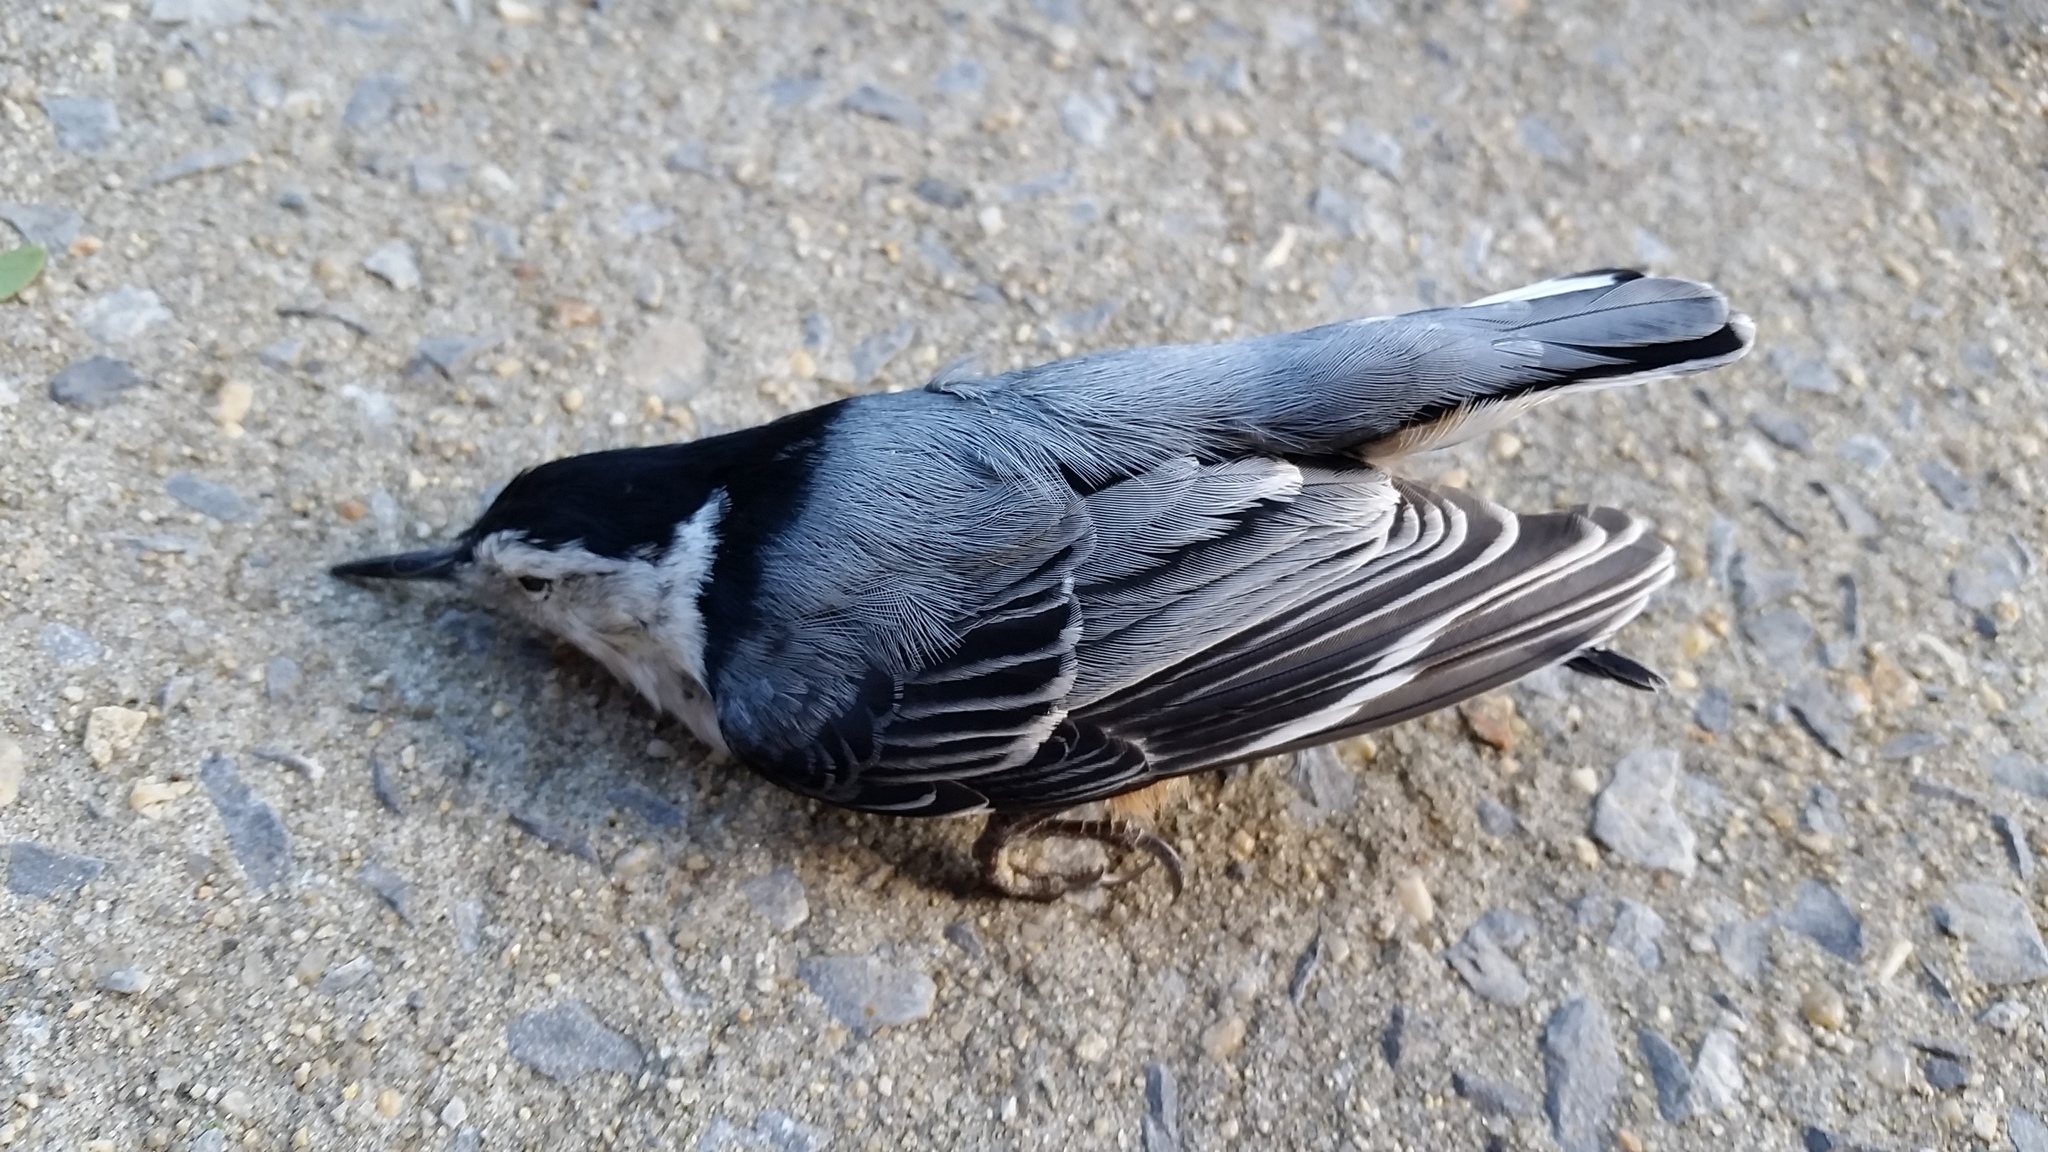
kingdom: Animalia
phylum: Chordata
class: Aves
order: Passeriformes
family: Sittidae
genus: Sitta
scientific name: Sitta carolinensis
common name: White-breasted nuthatch
